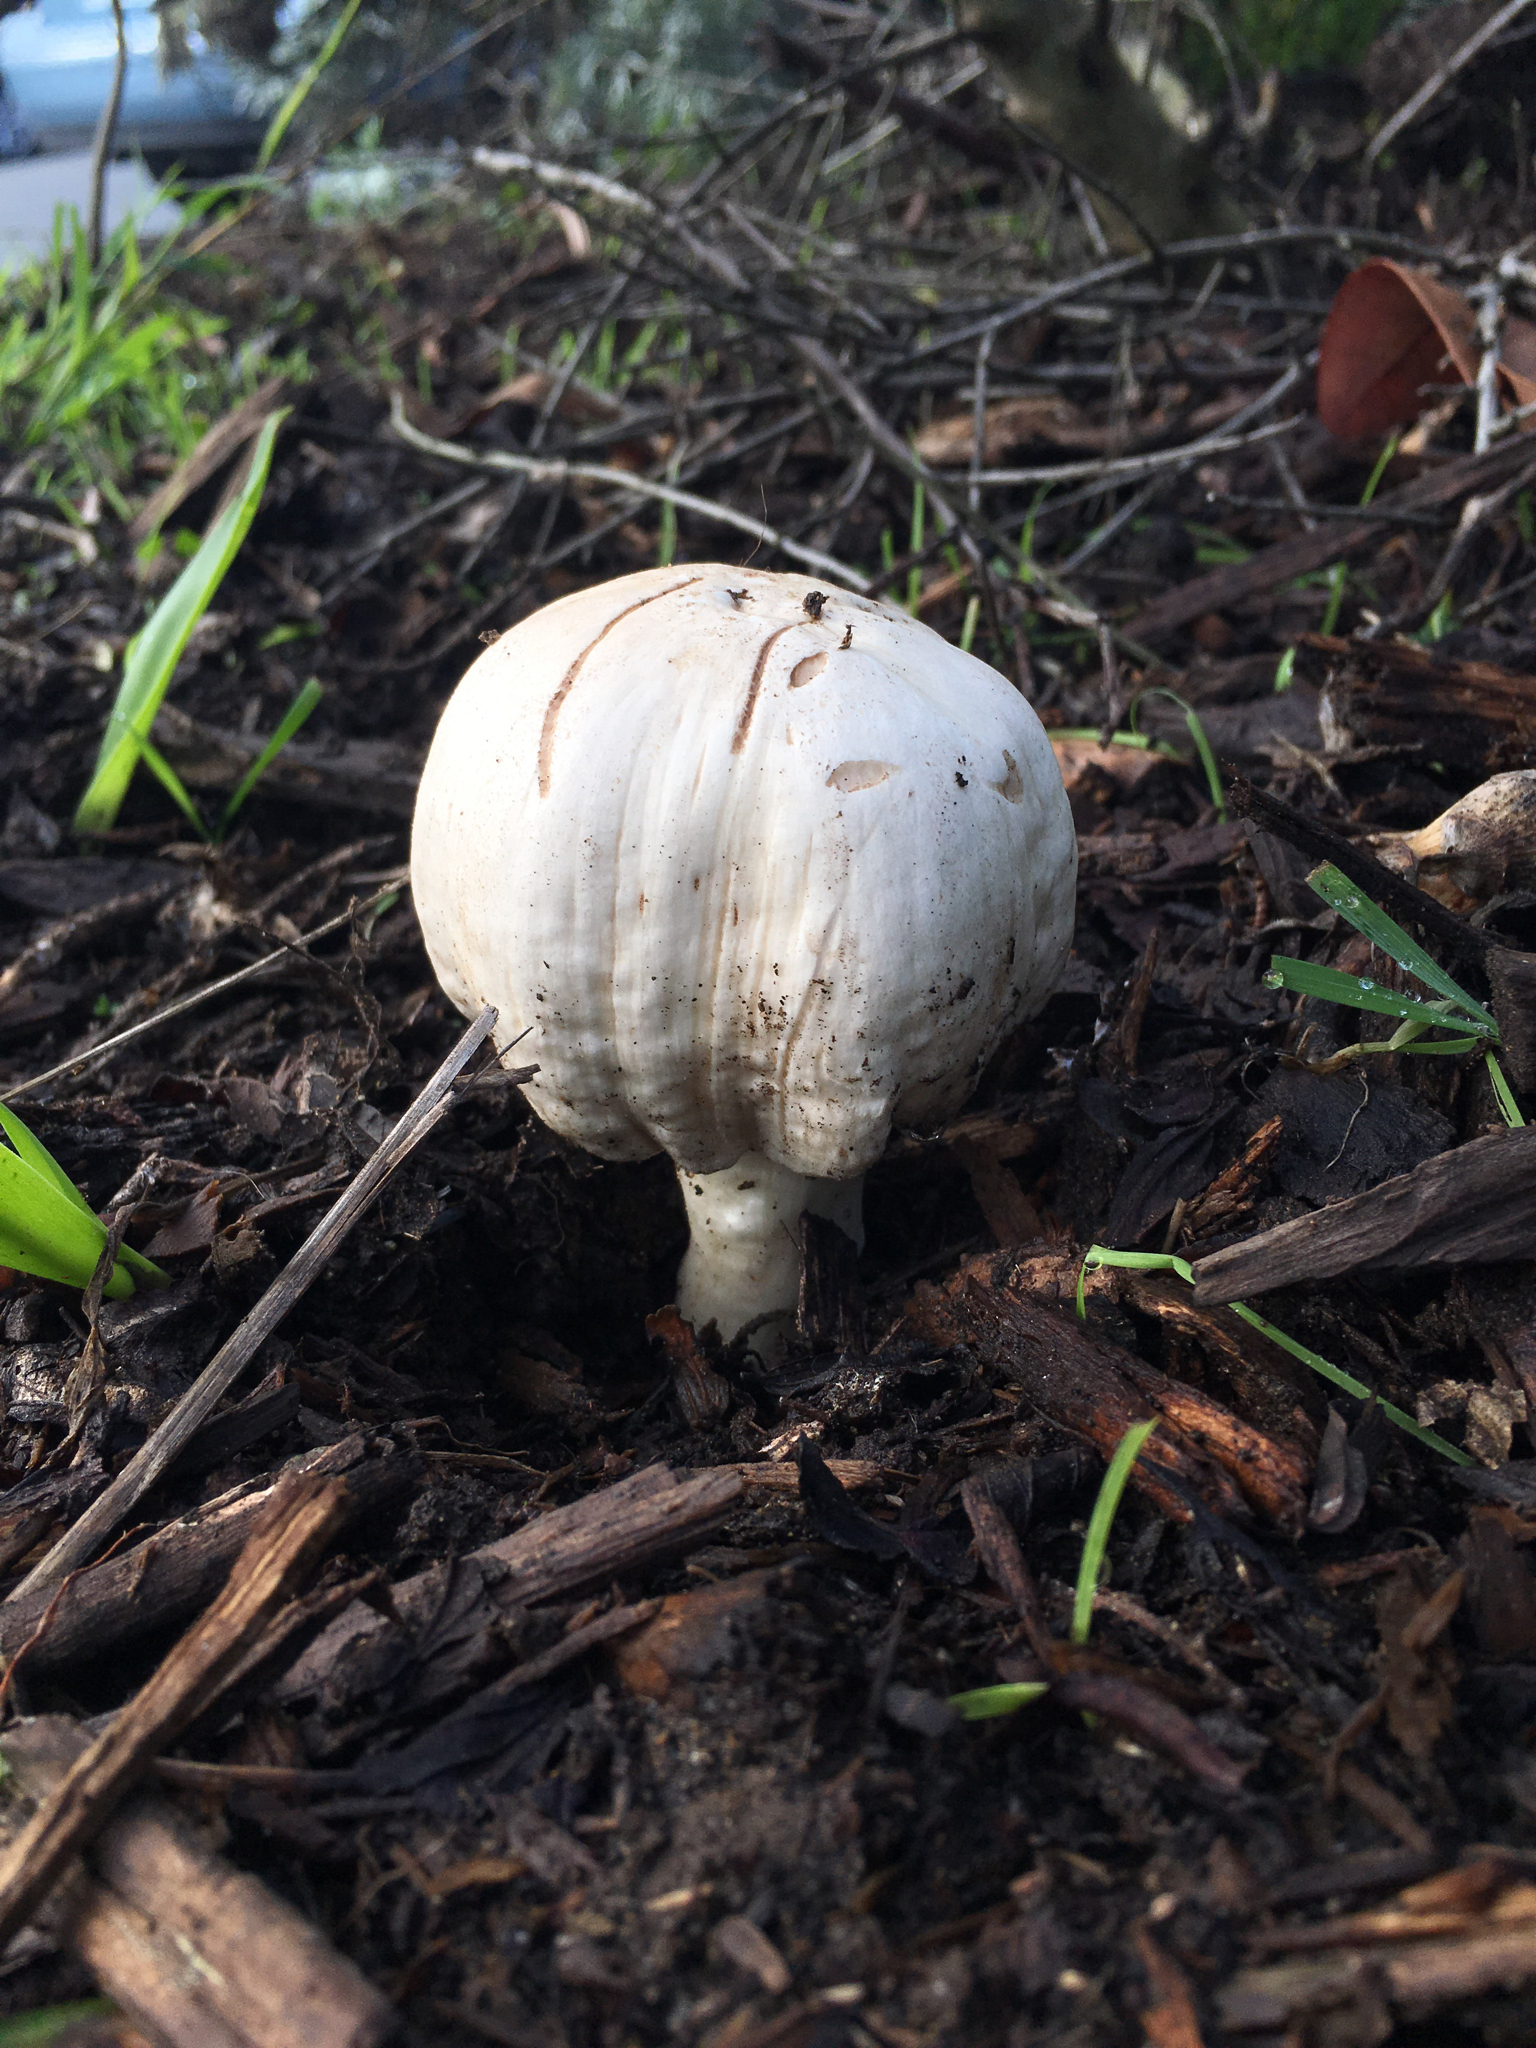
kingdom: Fungi
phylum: Basidiomycota
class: Agaricomycetes
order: Agaricales
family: Agaricaceae
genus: Agaricus
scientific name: Agaricus californicus
